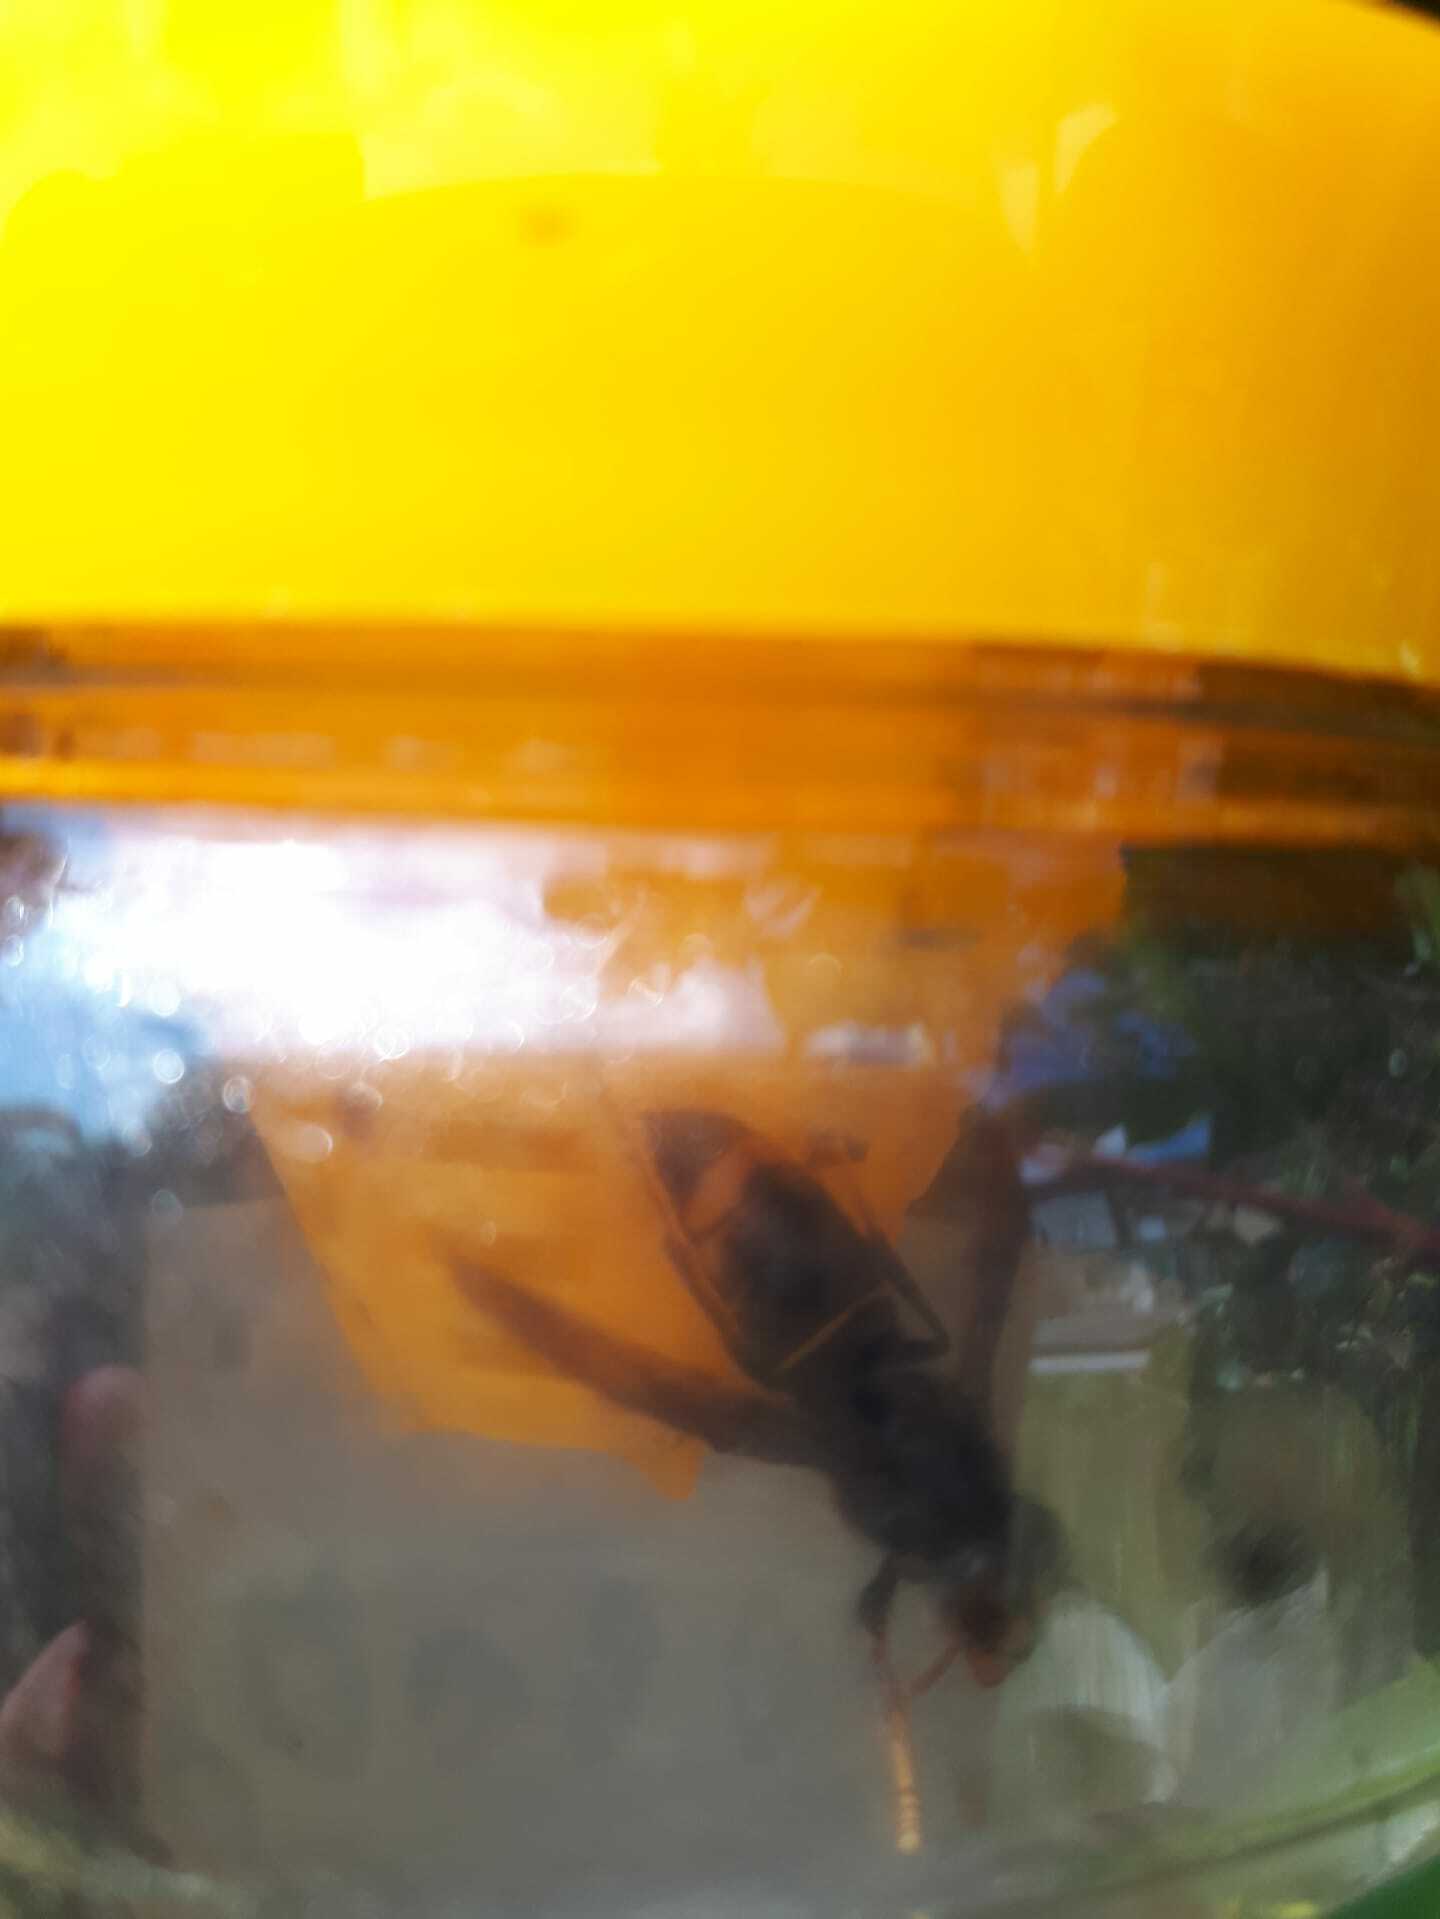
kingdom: Animalia
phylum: Arthropoda
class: Insecta
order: Hymenoptera
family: Vespidae
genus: Vespa
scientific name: Vespa velutina
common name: Asian hornet
